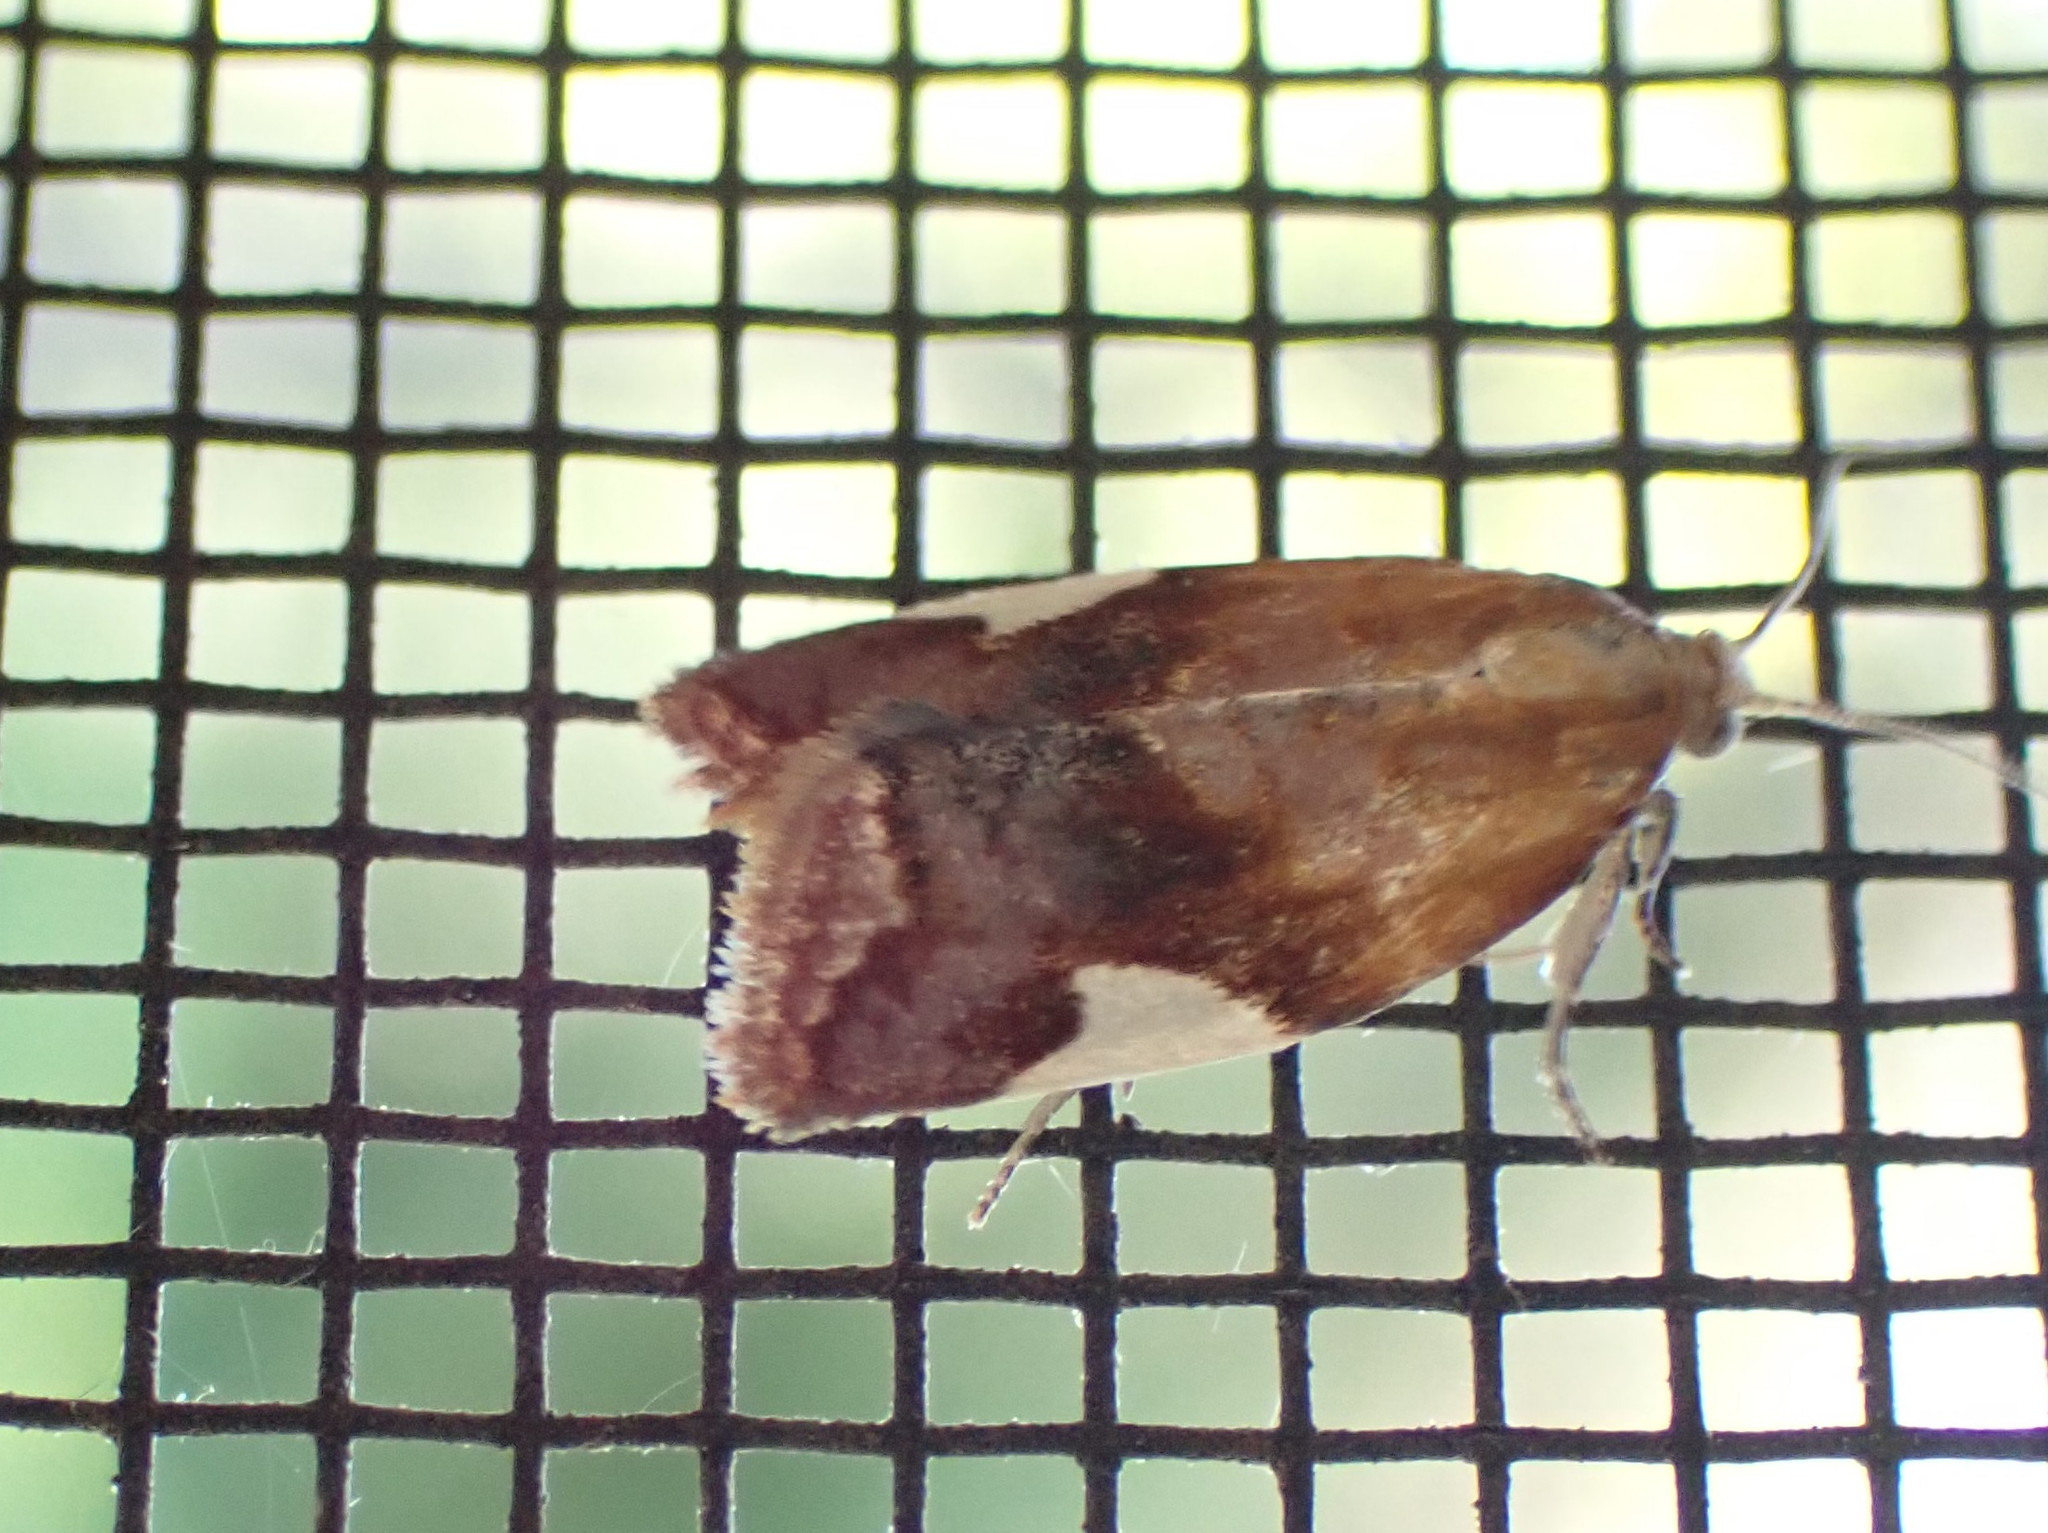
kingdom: Animalia
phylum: Arthropoda
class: Insecta
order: Lepidoptera
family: Tortricidae
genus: Clepsis
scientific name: Clepsis persicana
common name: White triangle tortrix
